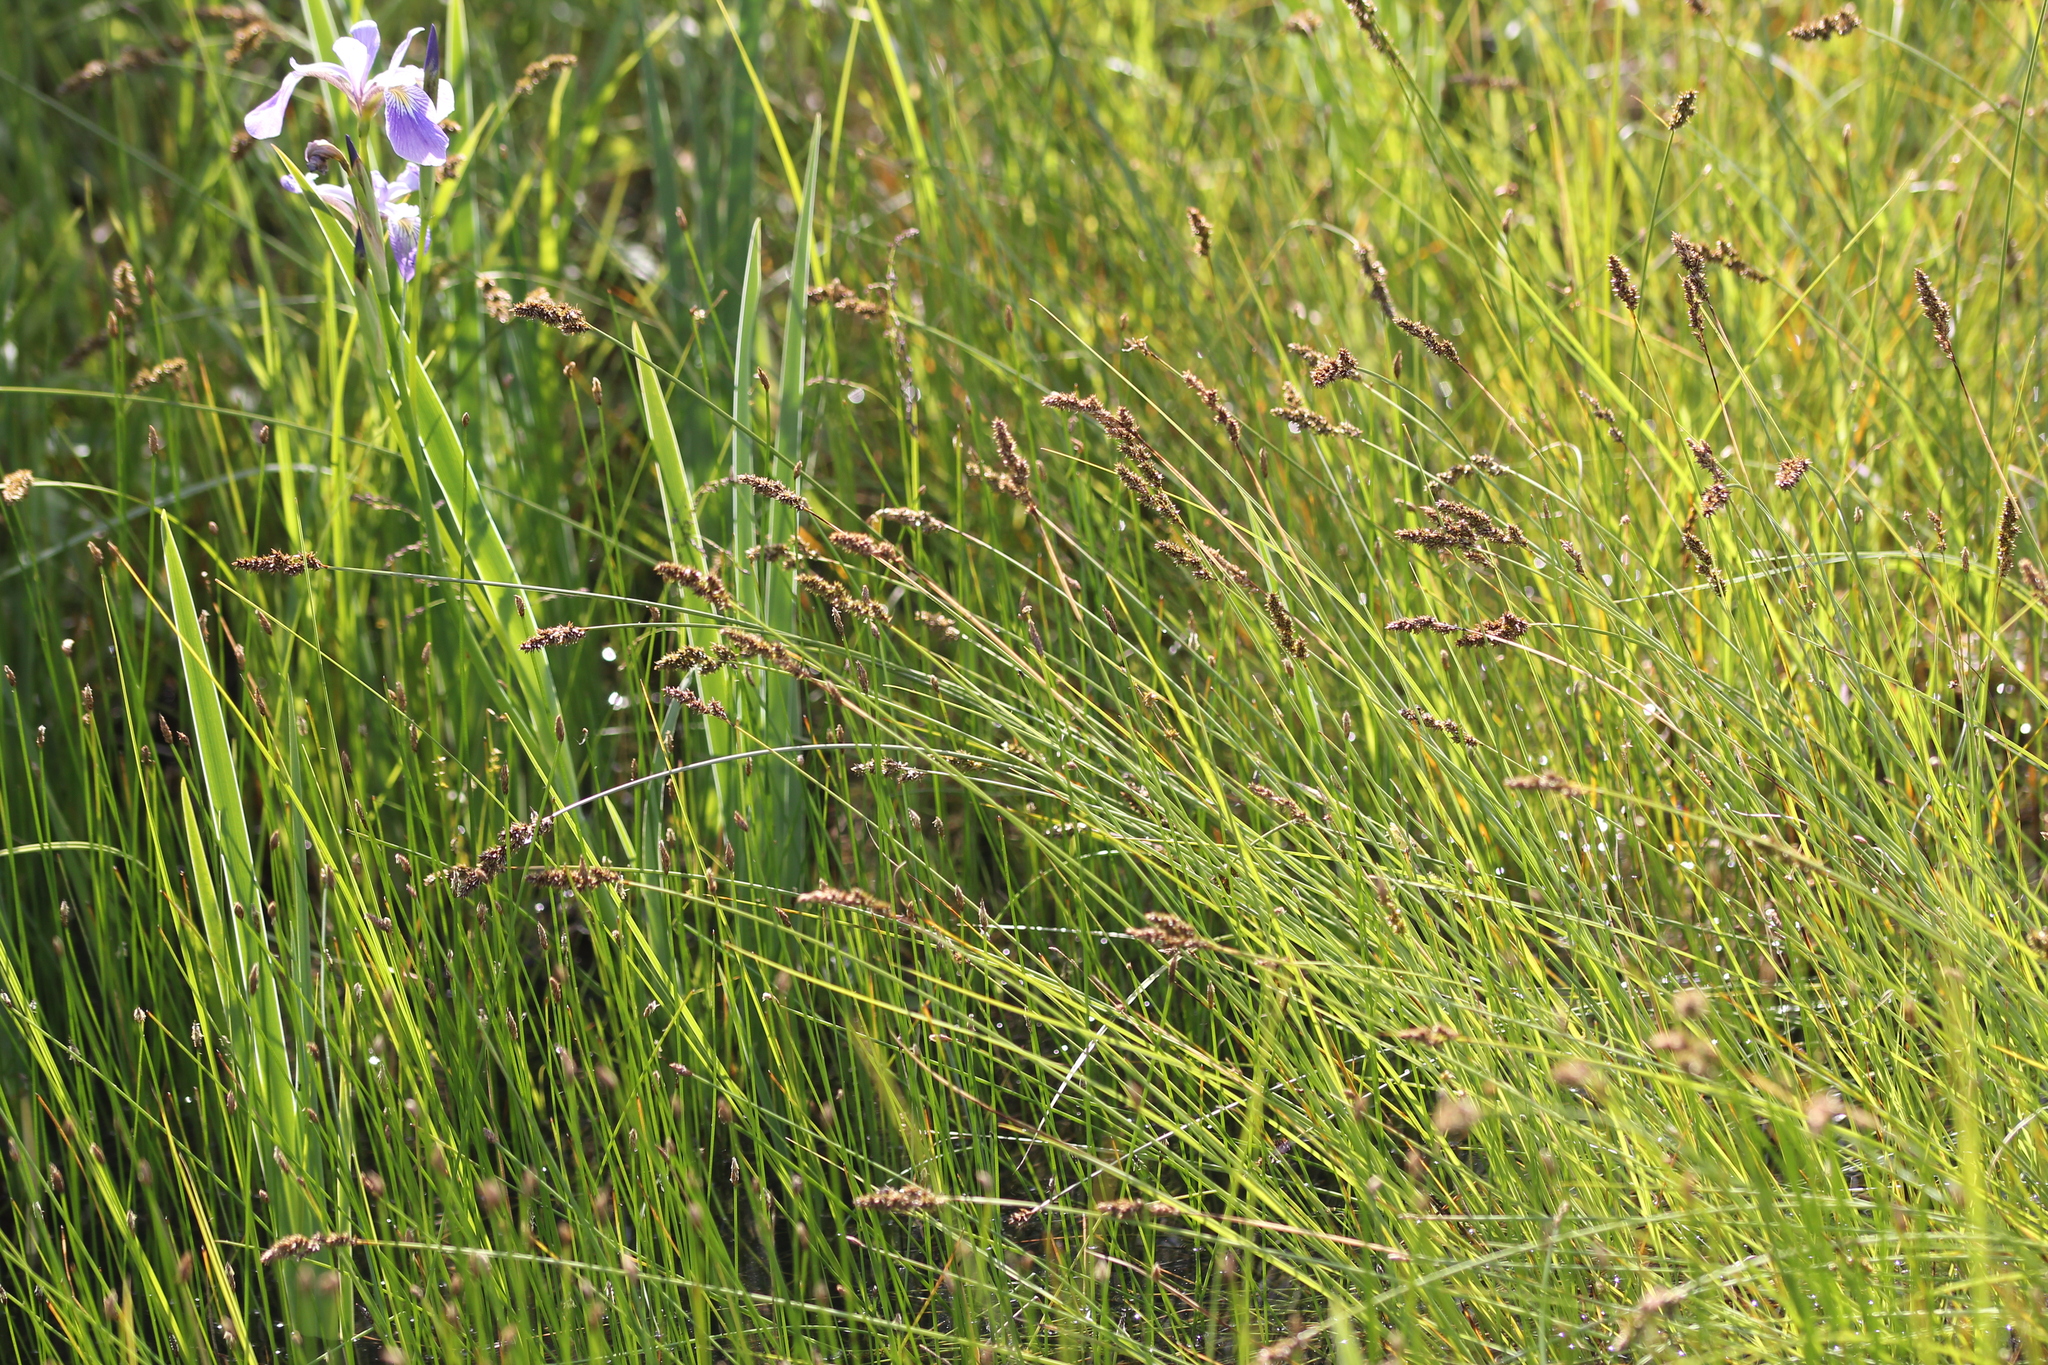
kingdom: Plantae
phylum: Tracheophyta
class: Liliopsida
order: Poales
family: Cyperaceae
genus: Carex
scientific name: Carex diandra
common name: Lesser tussock-sedge
